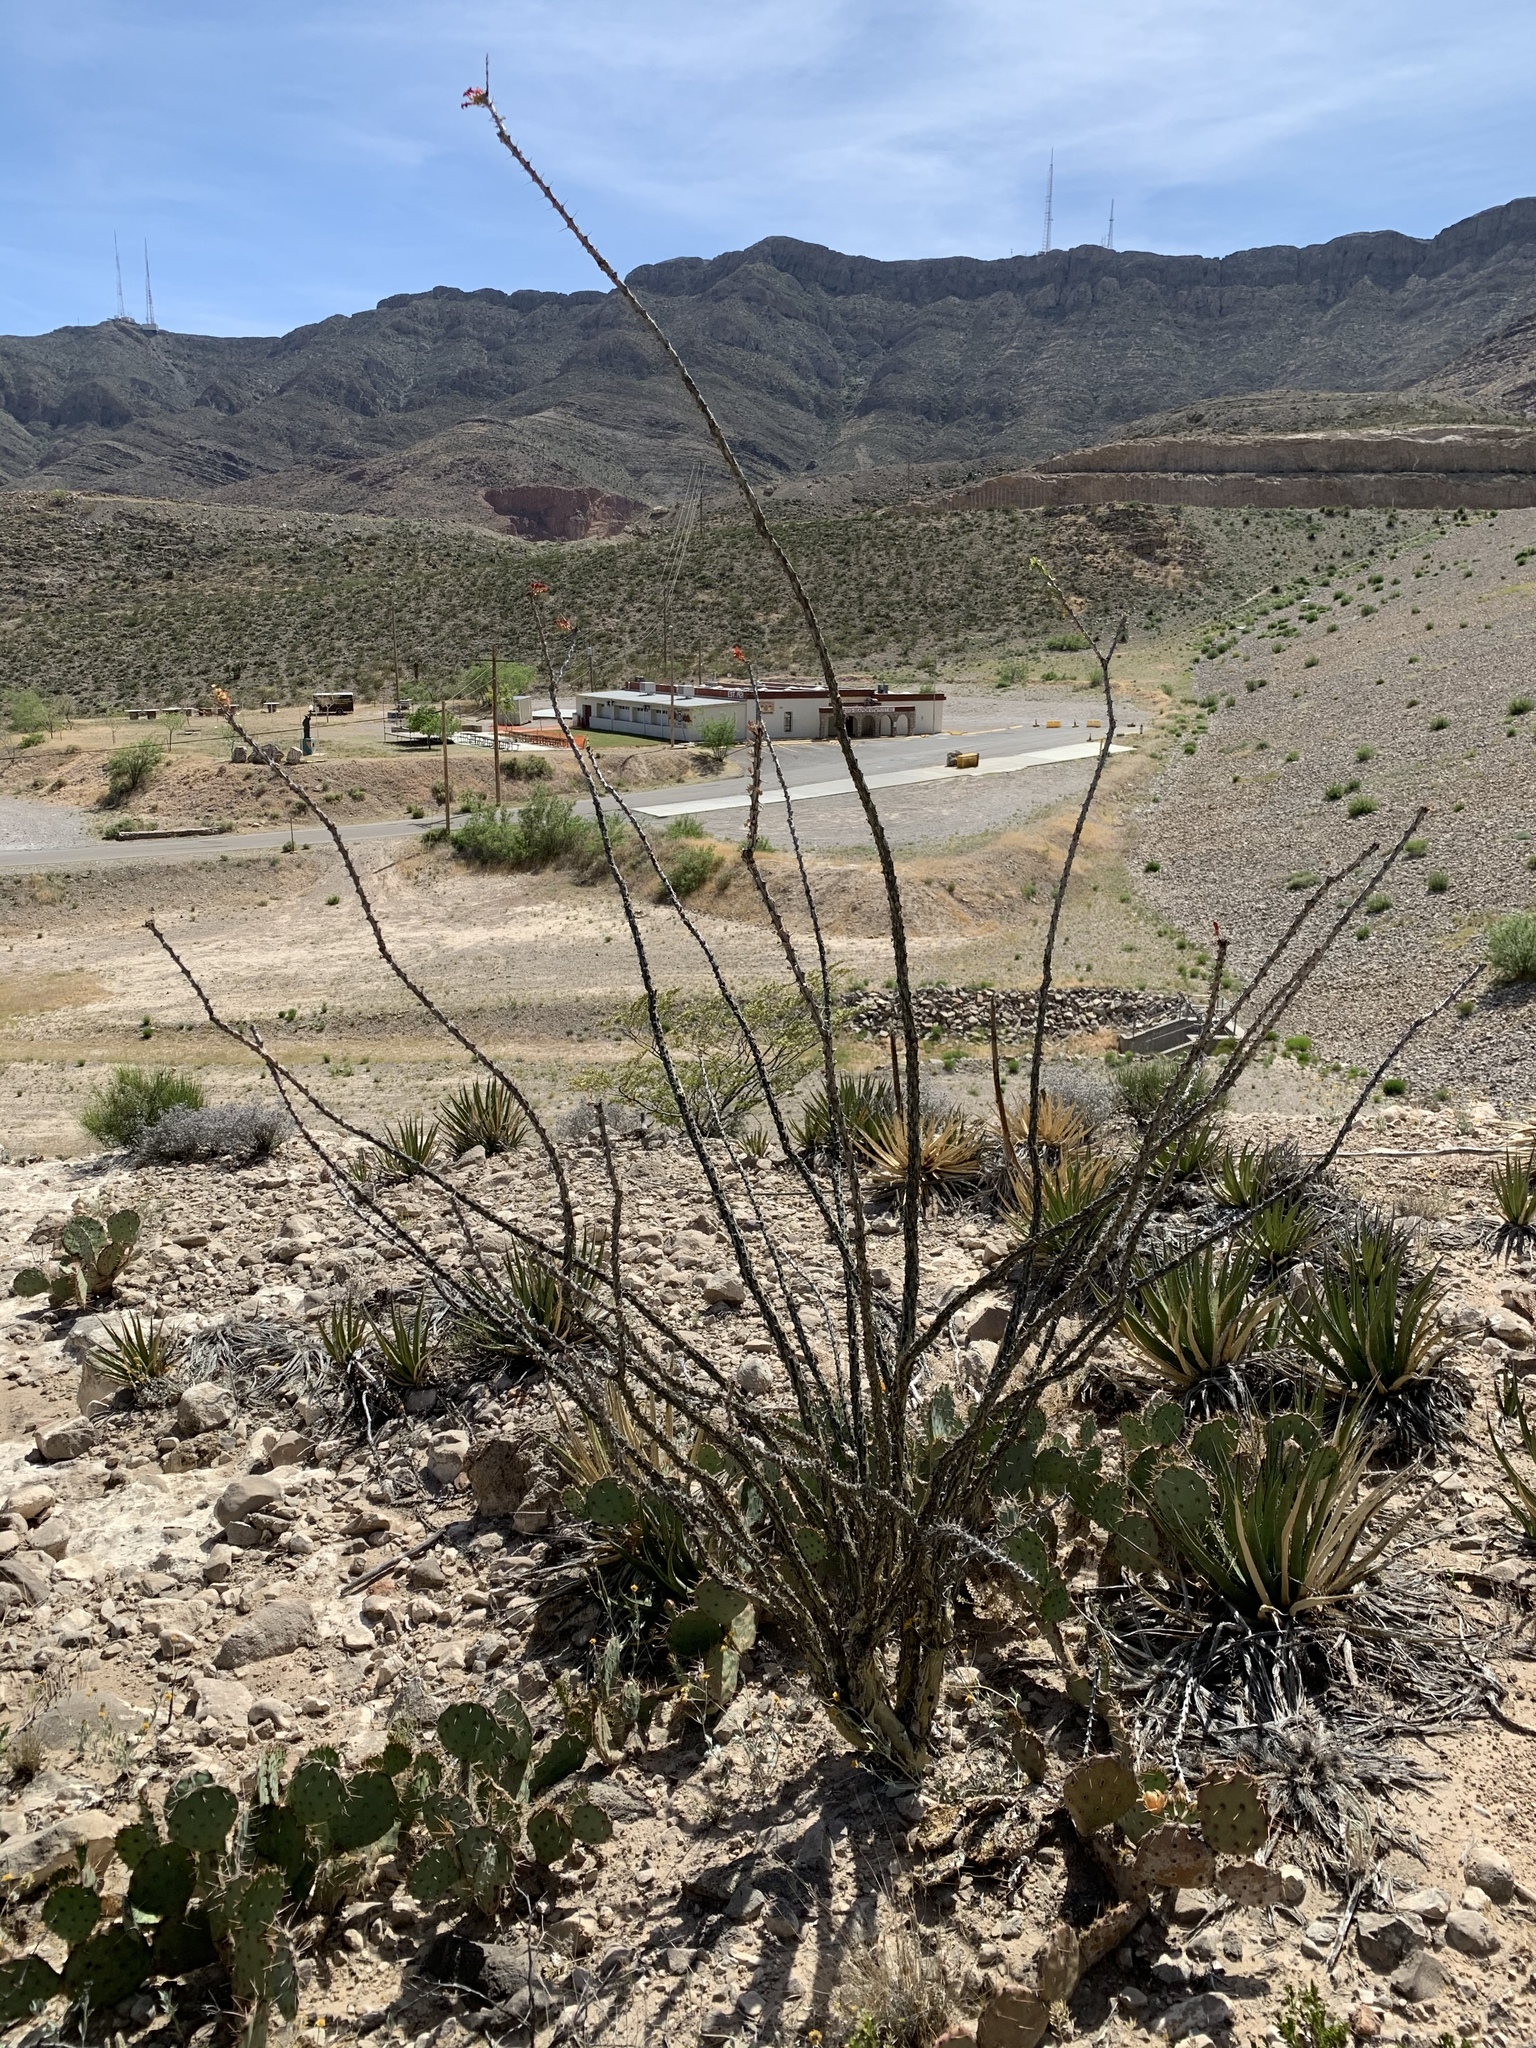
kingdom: Plantae
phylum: Tracheophyta
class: Magnoliopsida
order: Ericales
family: Fouquieriaceae
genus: Fouquieria
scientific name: Fouquieria splendens
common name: Vine-cactus
